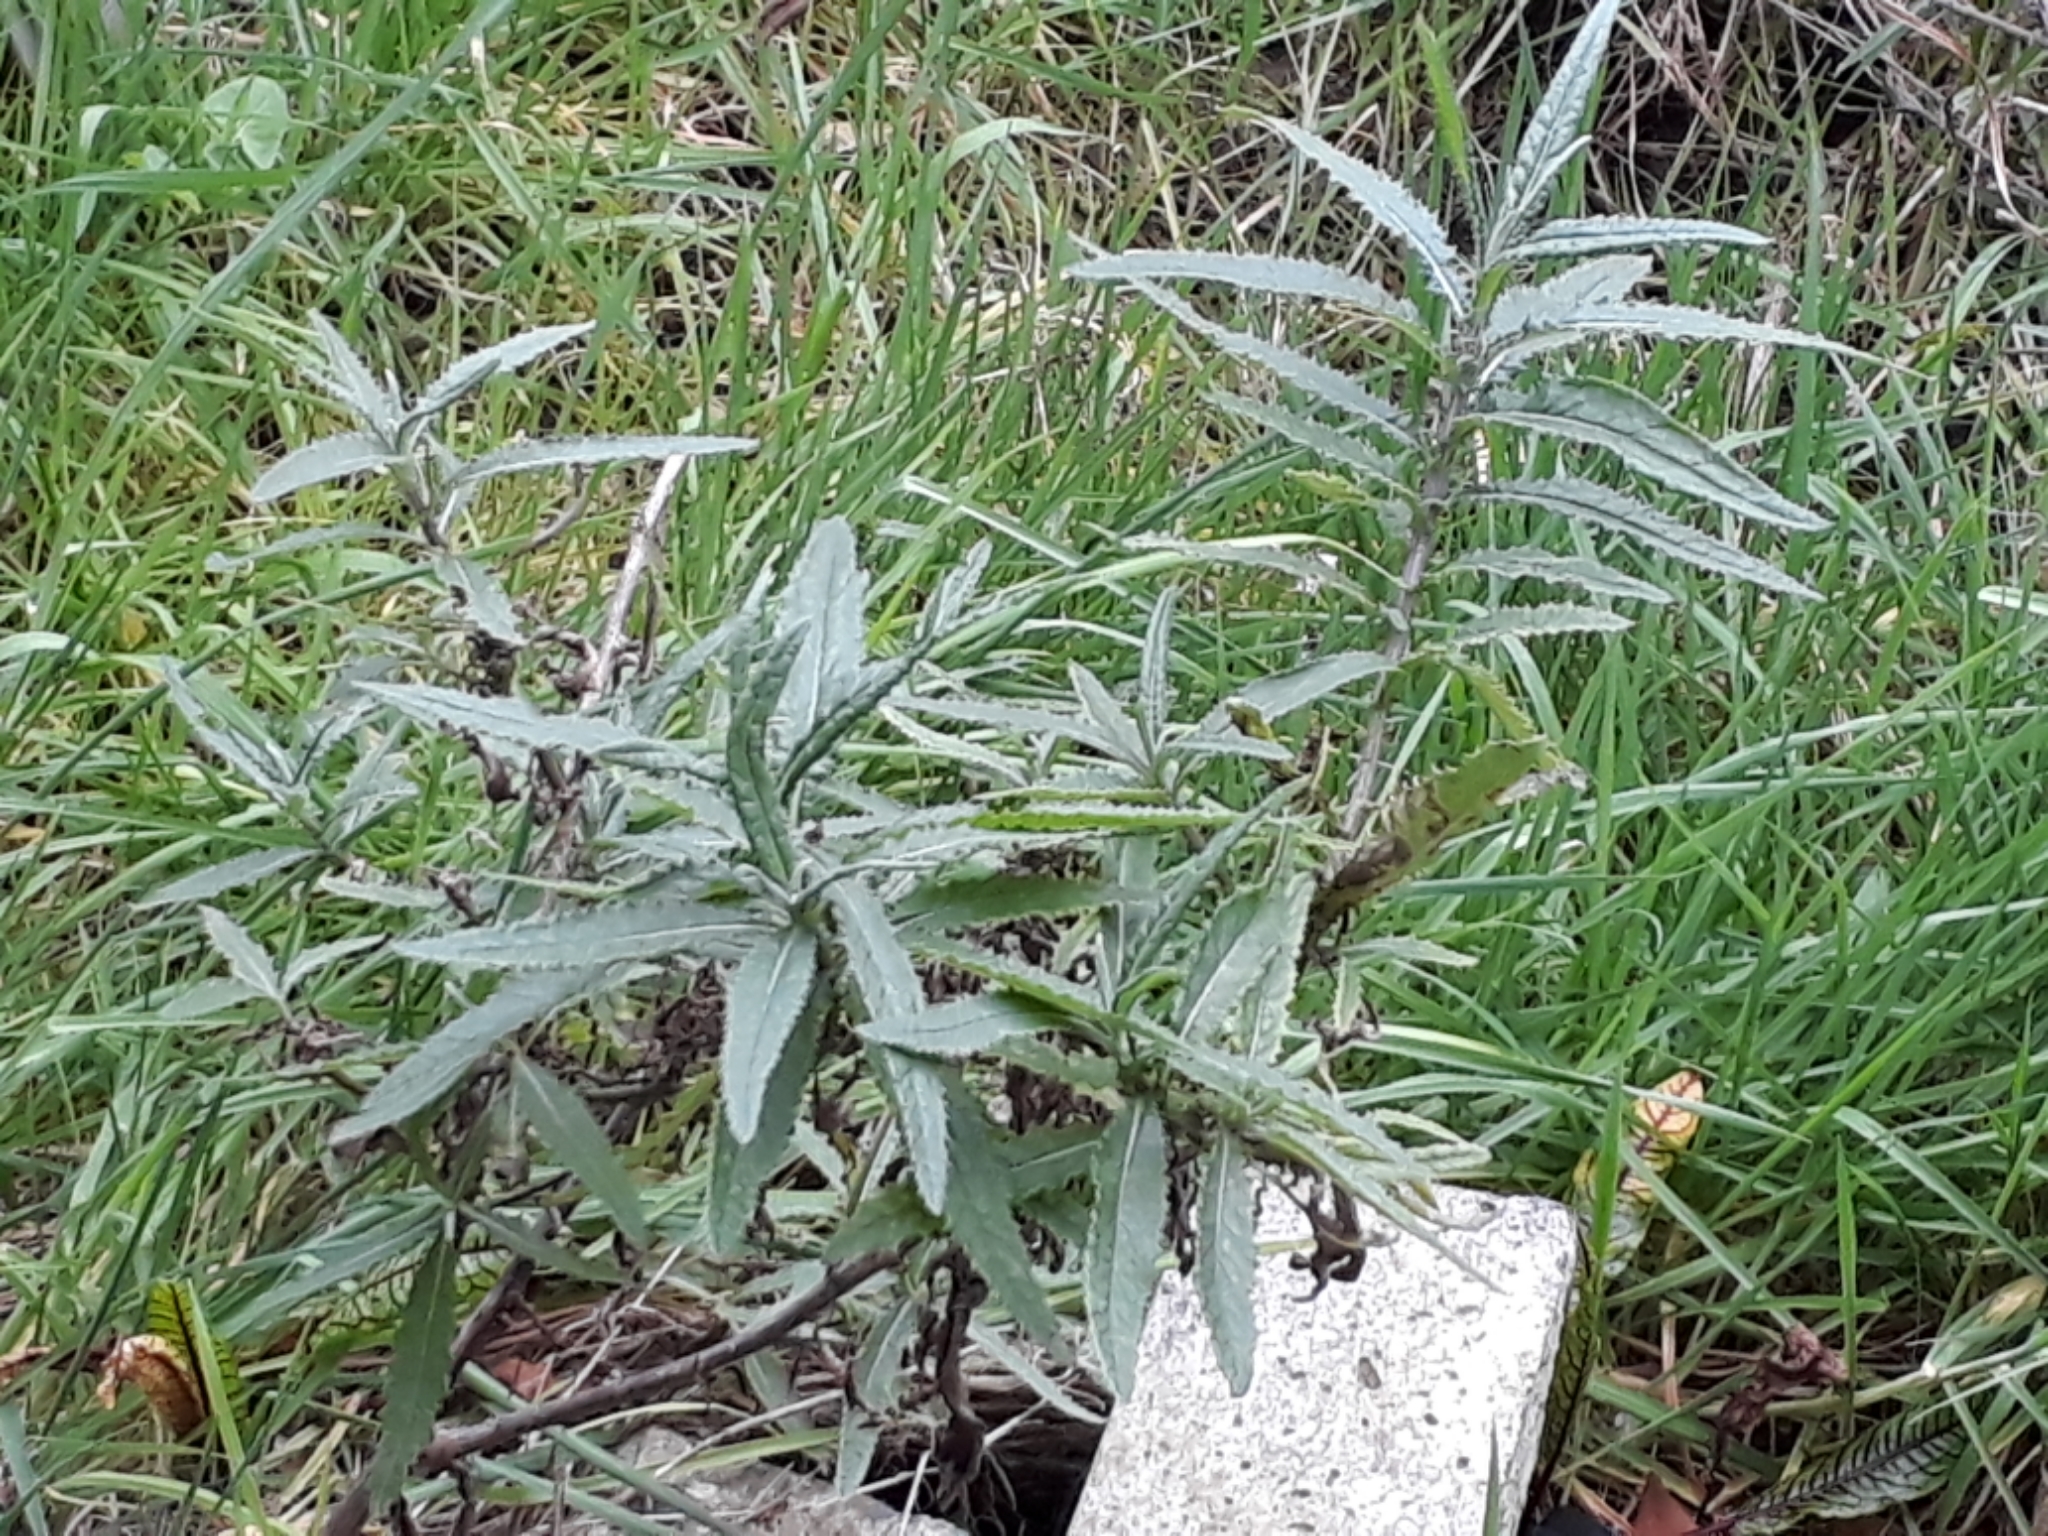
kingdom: Plantae
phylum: Tracheophyta
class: Magnoliopsida
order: Asterales
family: Asteraceae
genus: Senecio
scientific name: Senecio minimus
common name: Toothed fireweed
